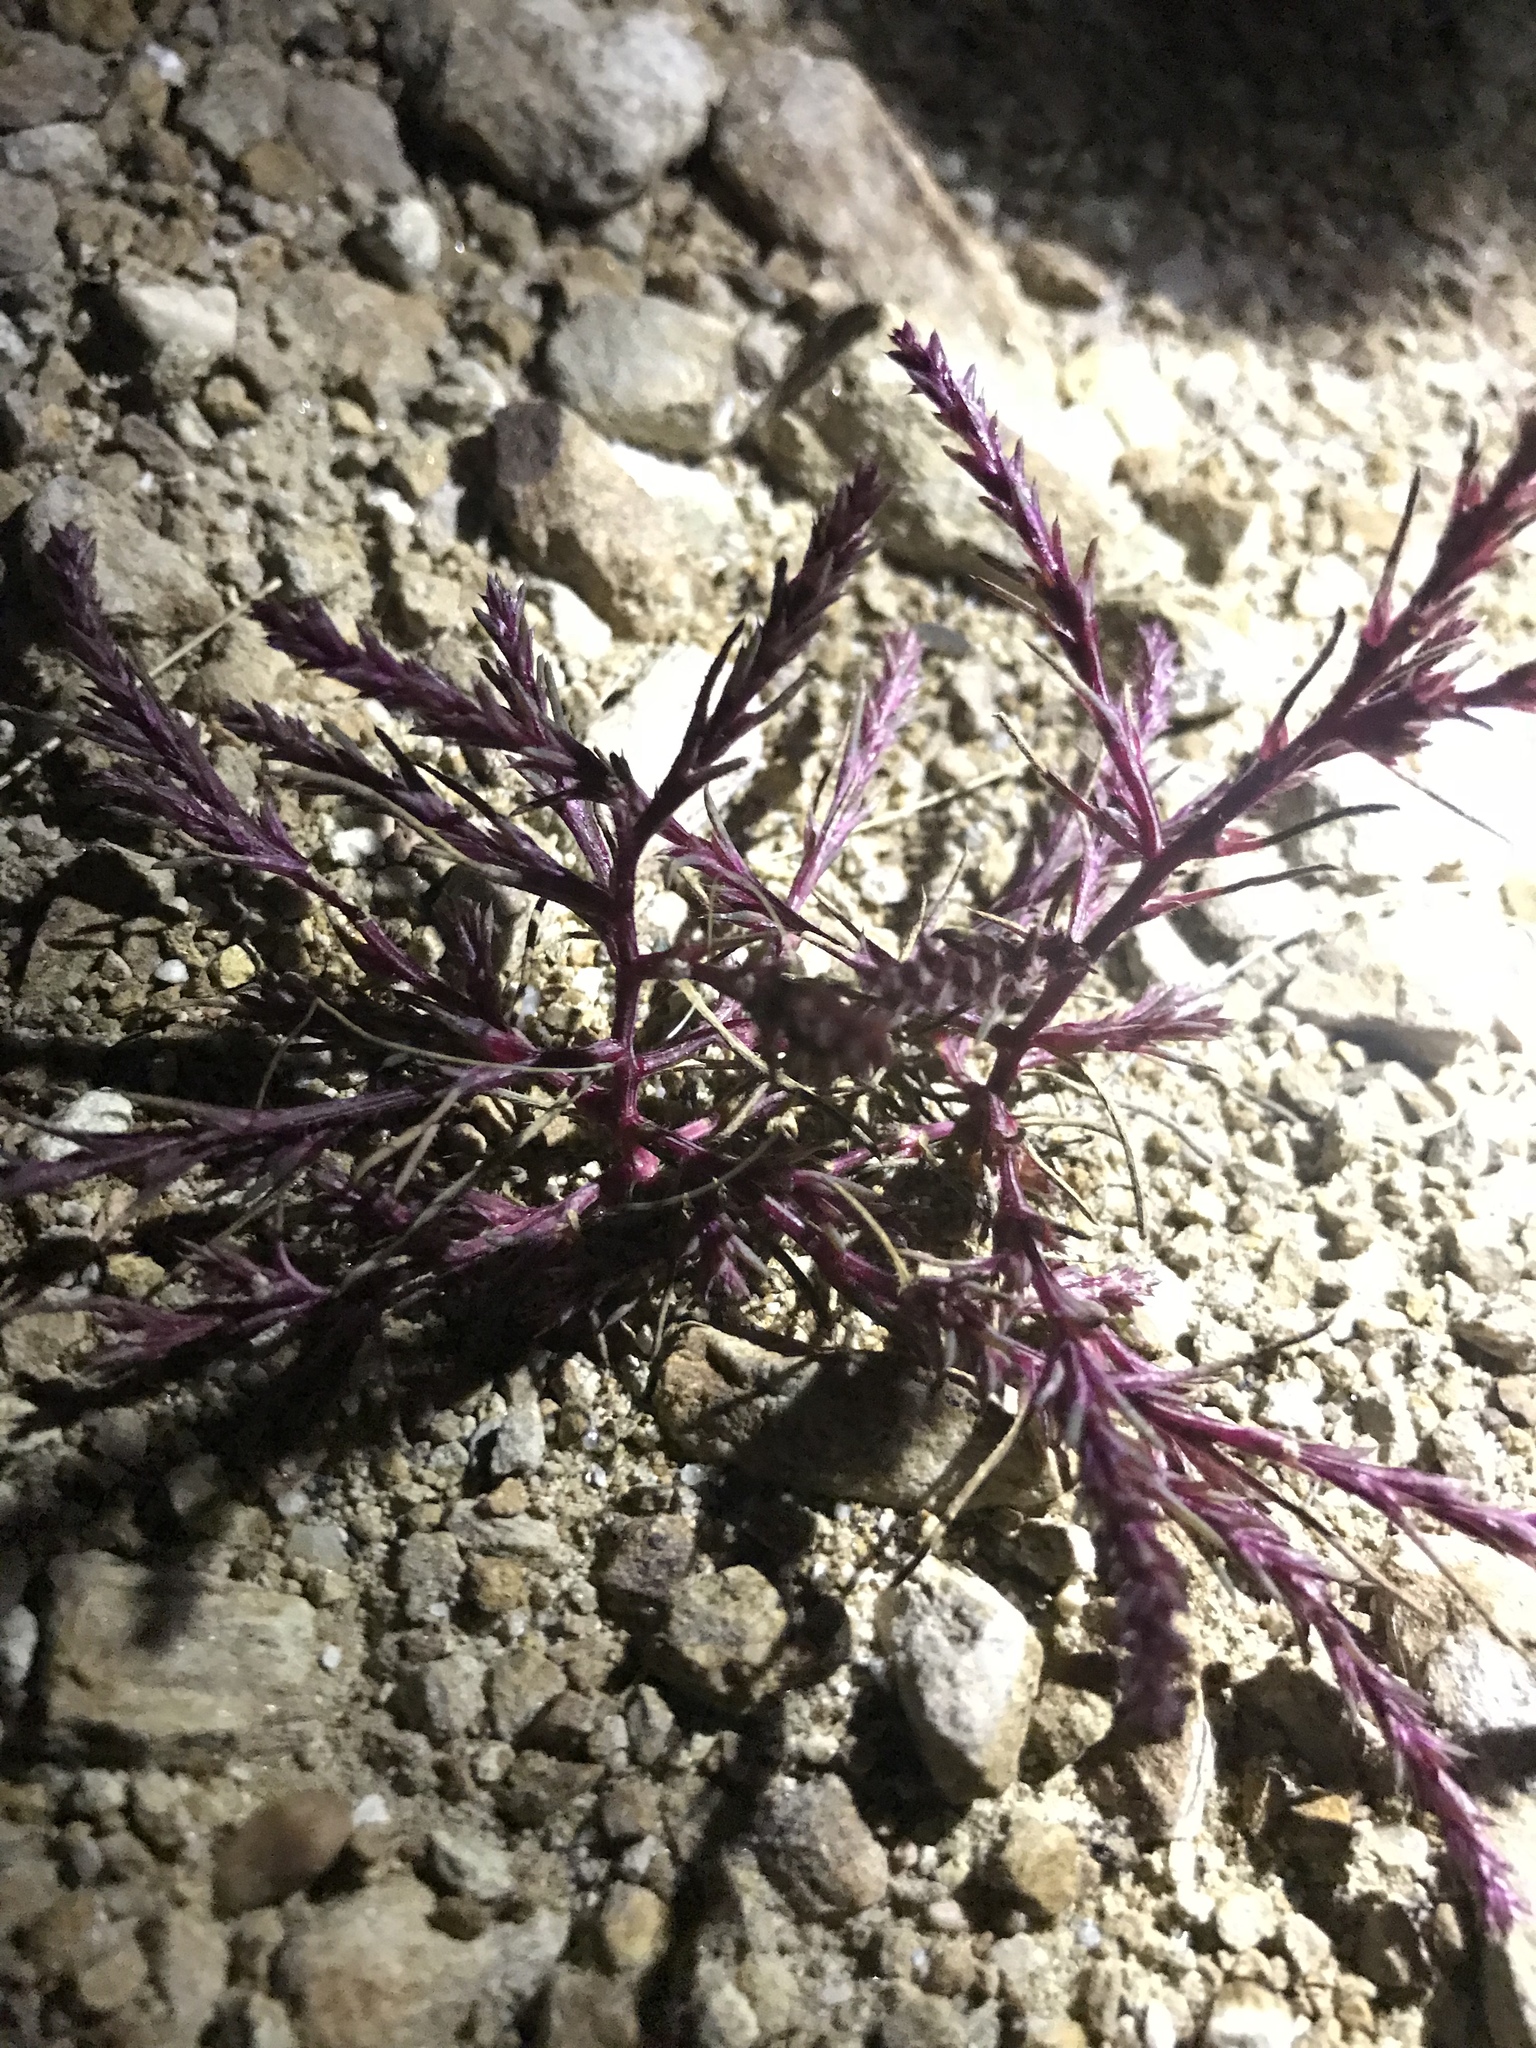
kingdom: Plantae
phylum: Tracheophyta
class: Magnoliopsida
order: Caryophyllales
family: Amaranthaceae
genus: Salsola
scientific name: Salsola collina
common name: Tumbleweed
